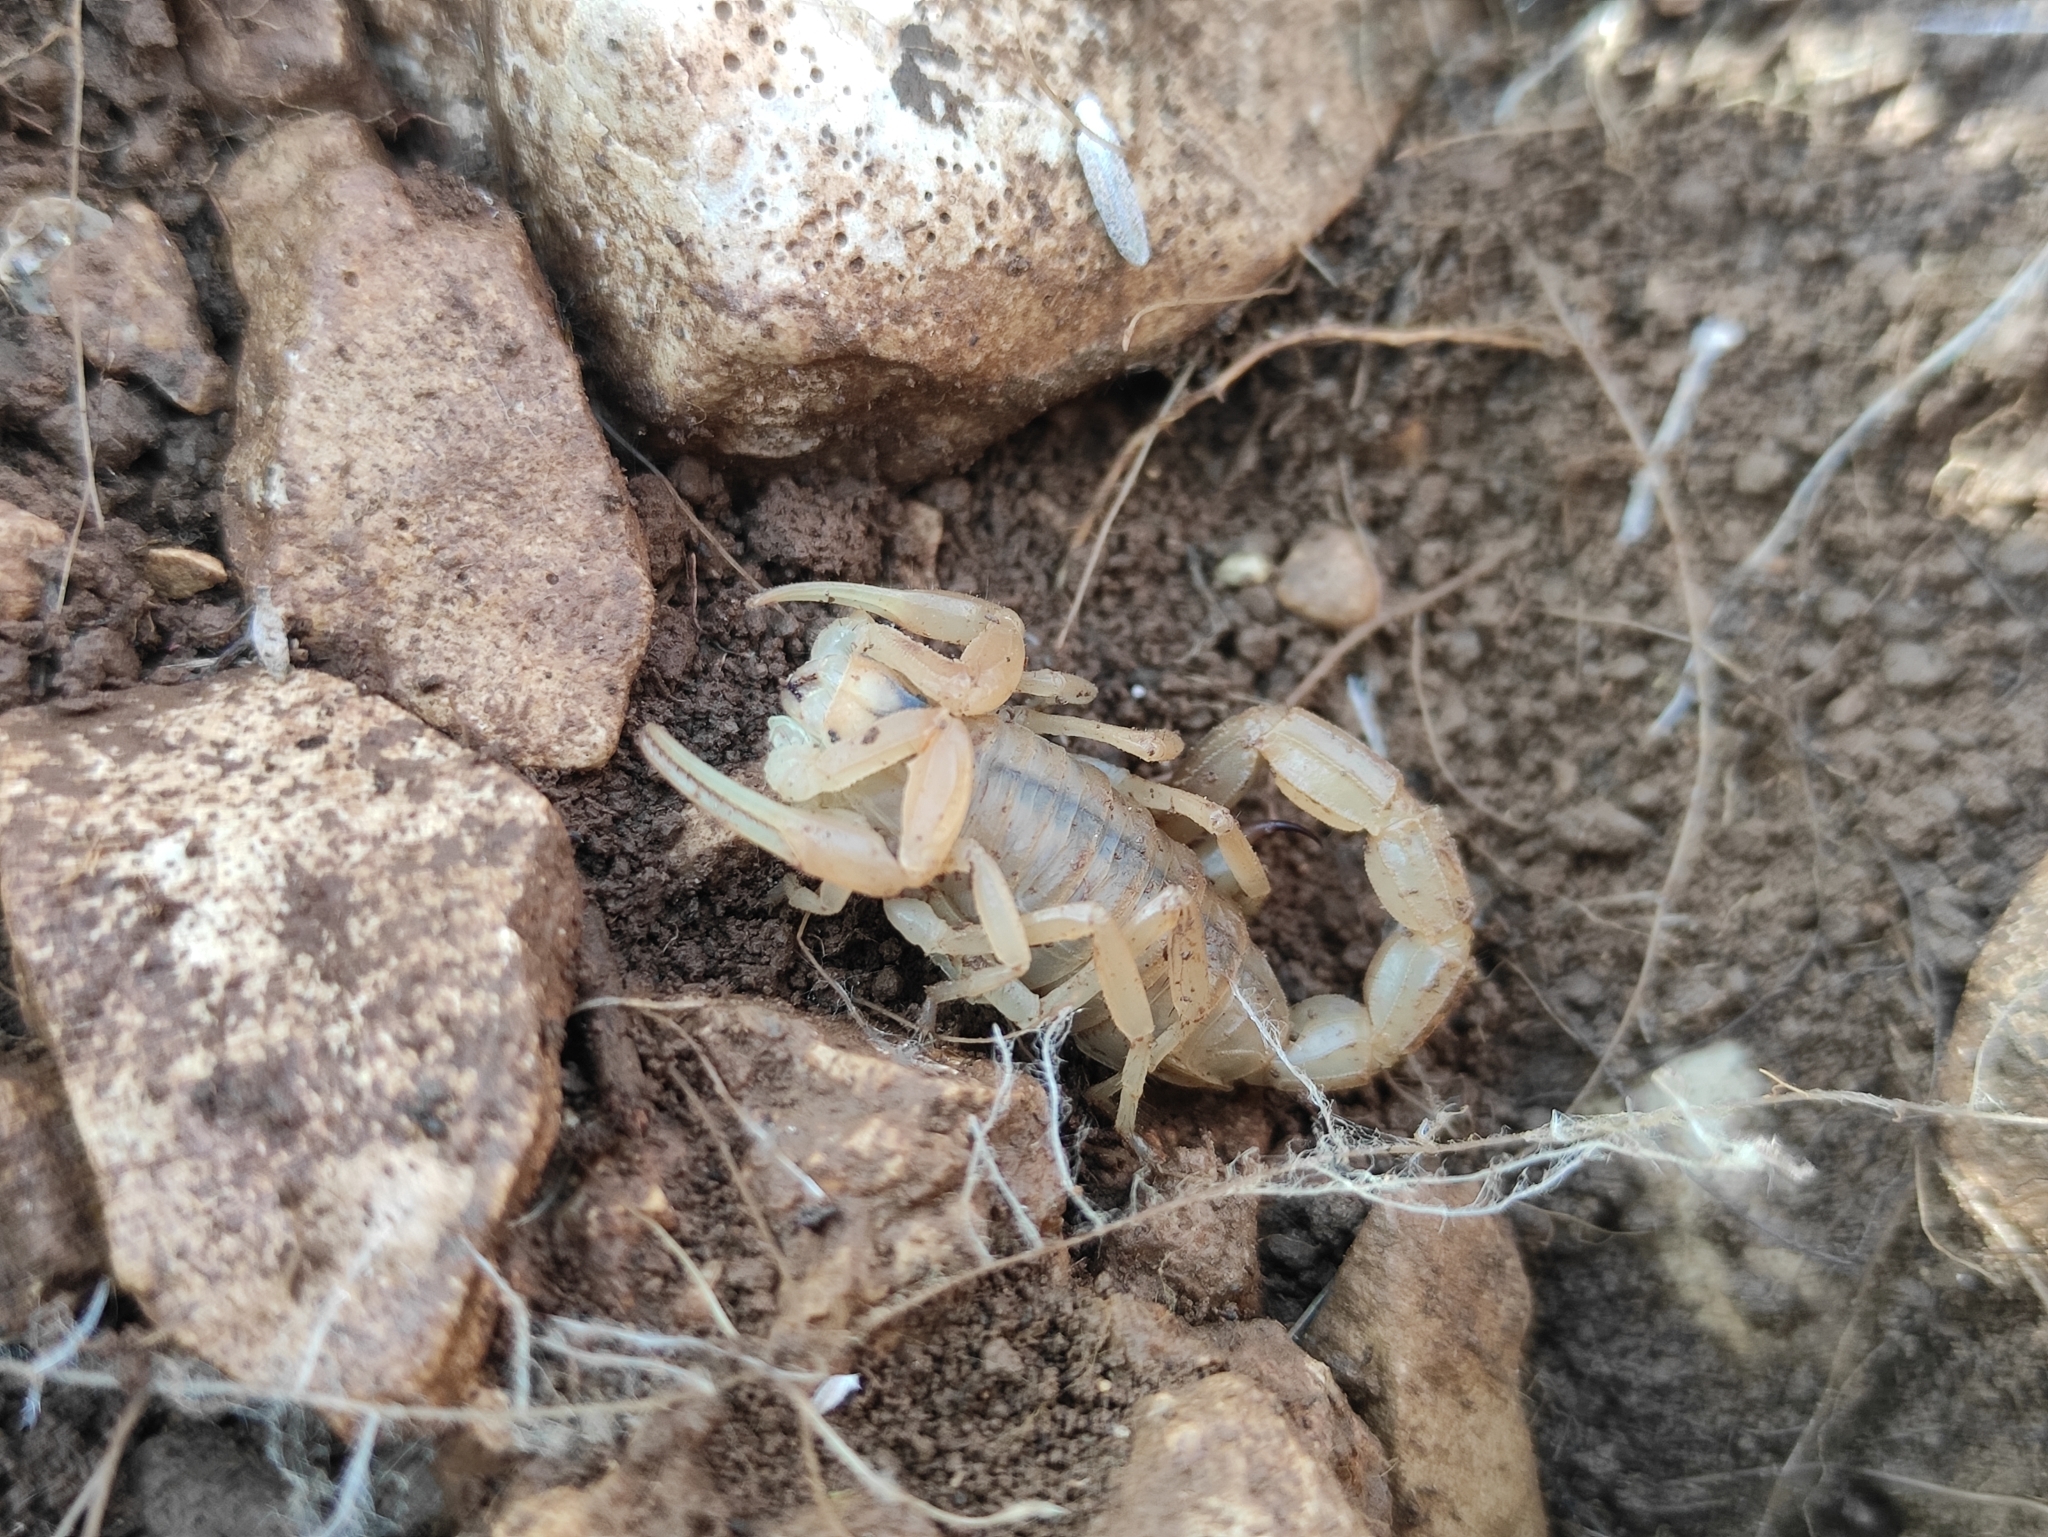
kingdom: Animalia
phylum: Arthropoda
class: Arachnida
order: Scorpiones
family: Buthidae
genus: Buthus
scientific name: Buthus occitanus
